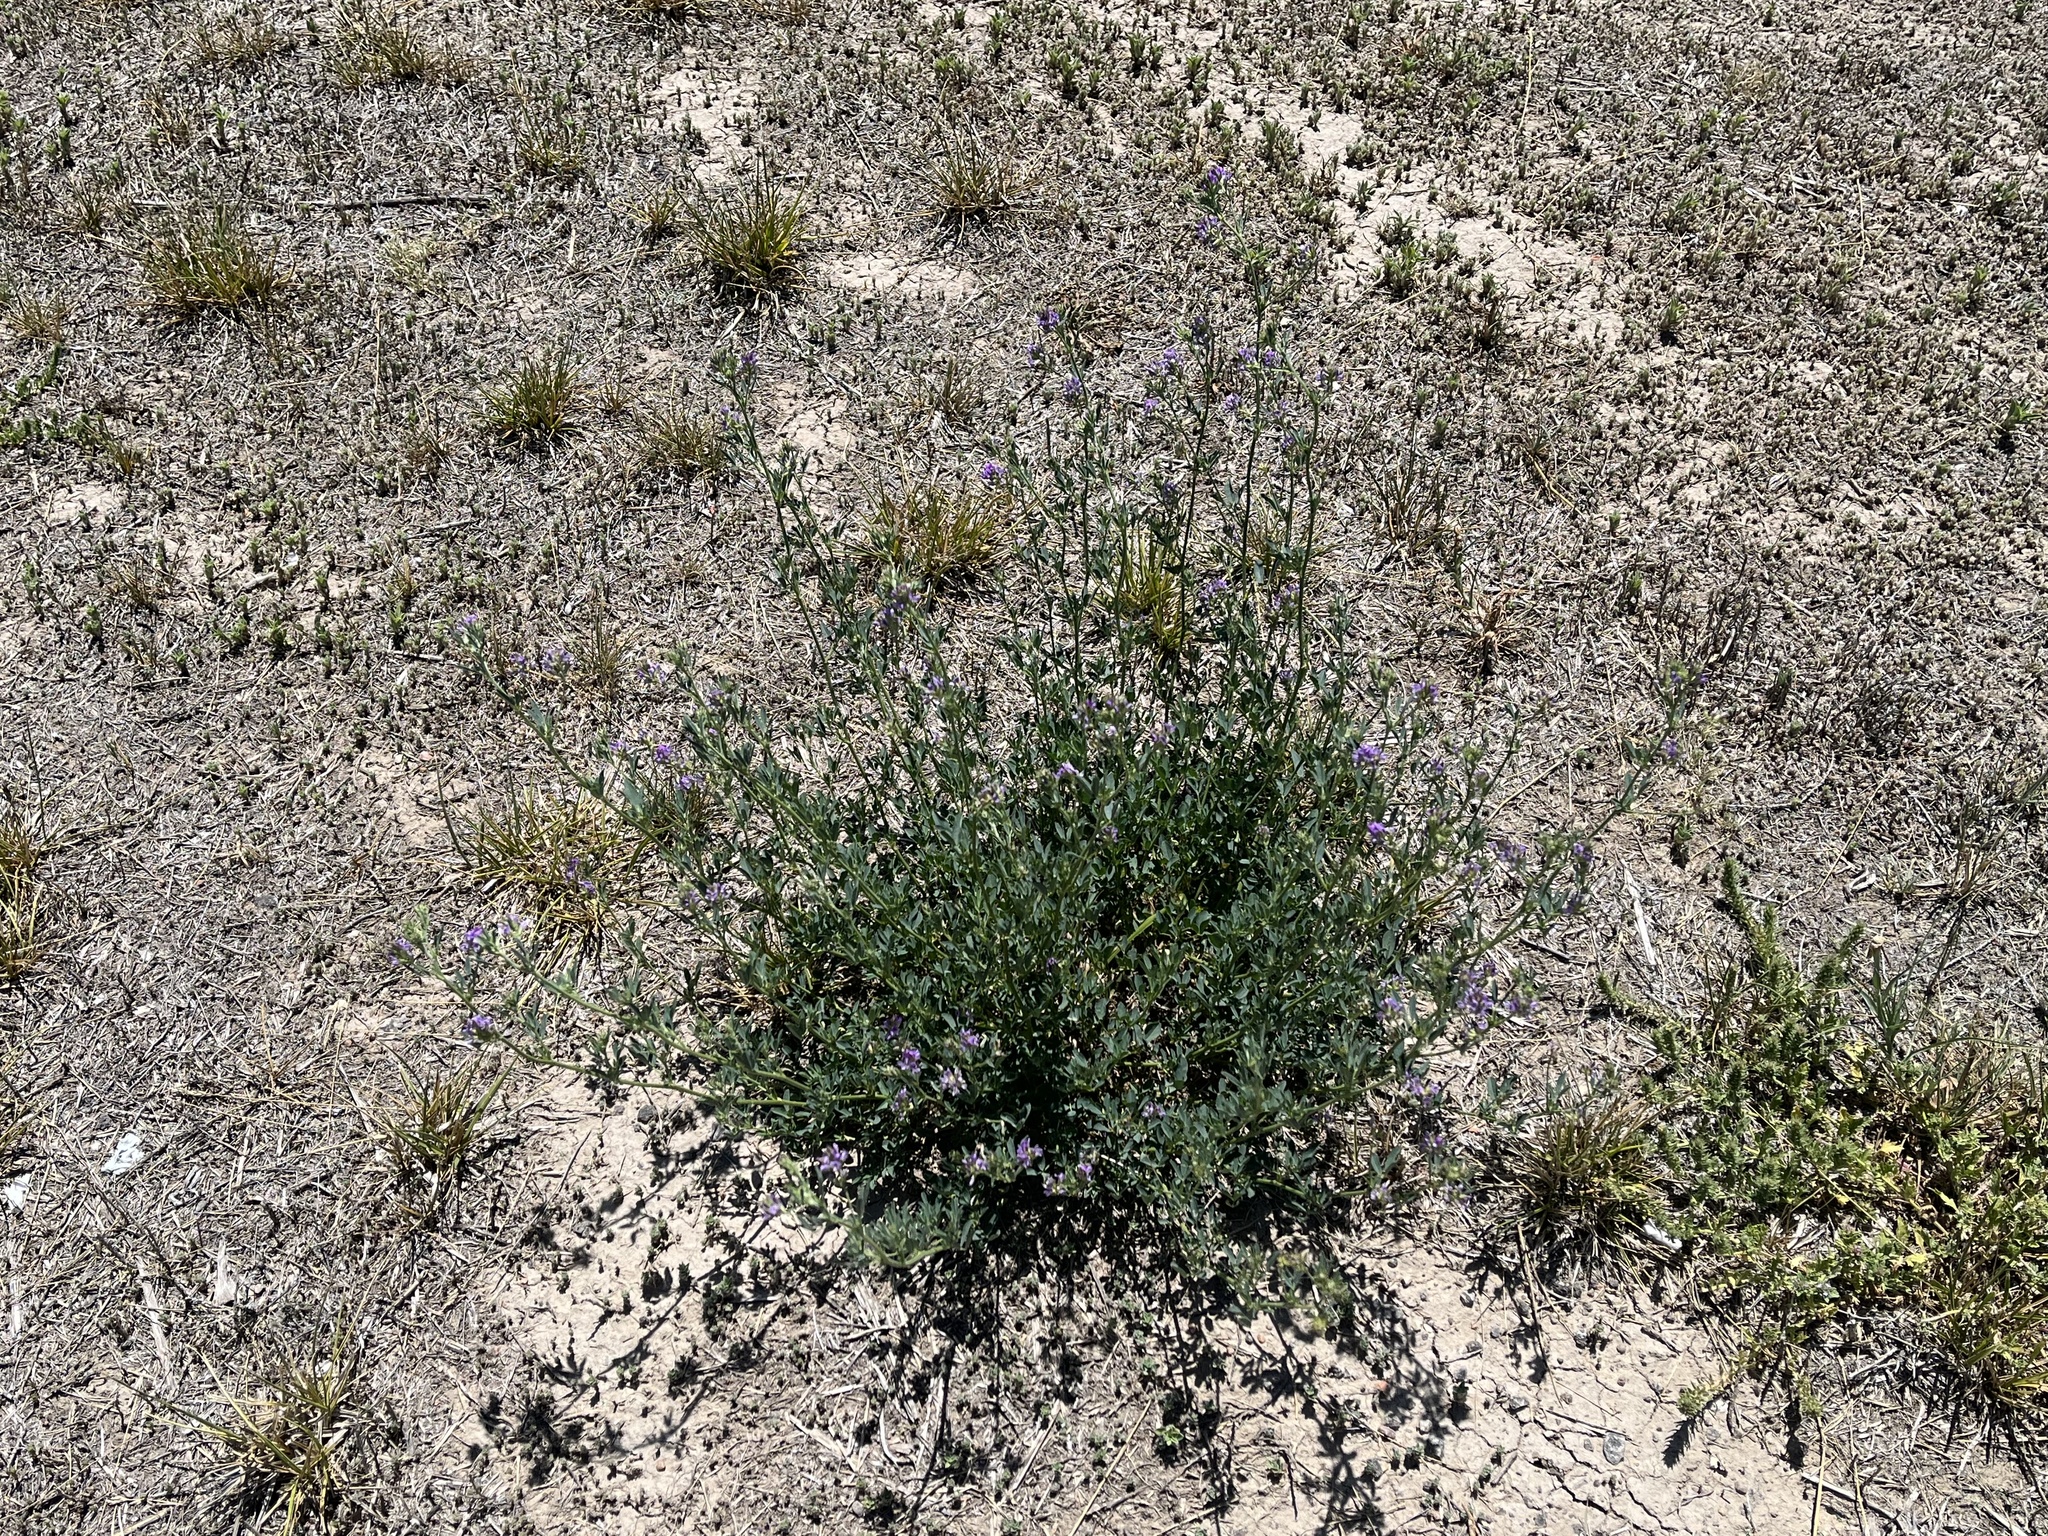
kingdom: Plantae
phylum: Tracheophyta
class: Magnoliopsida
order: Fabales
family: Fabaceae
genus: Medicago
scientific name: Medicago sativa
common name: Alfalfa
